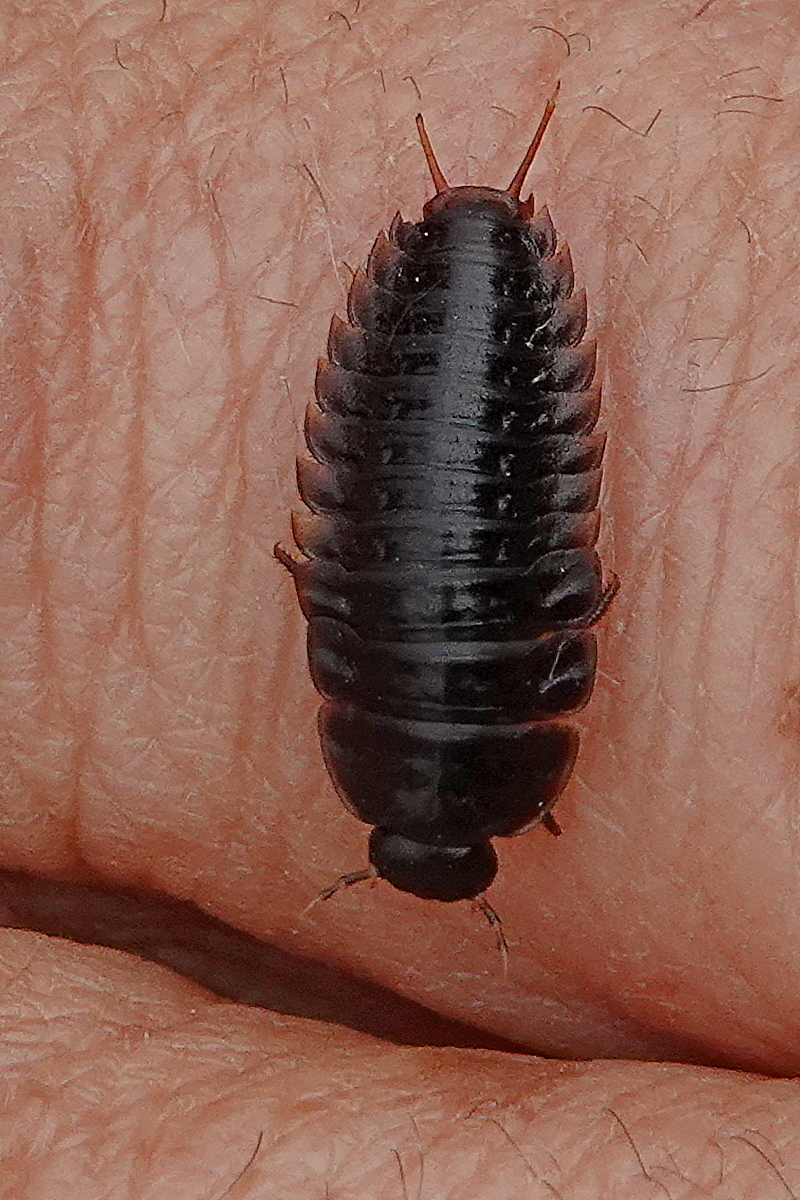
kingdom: Animalia
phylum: Arthropoda
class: Insecta
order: Coleoptera
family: Staphylinidae
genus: Ptomaphila
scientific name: Ptomaphila lacrymosa
